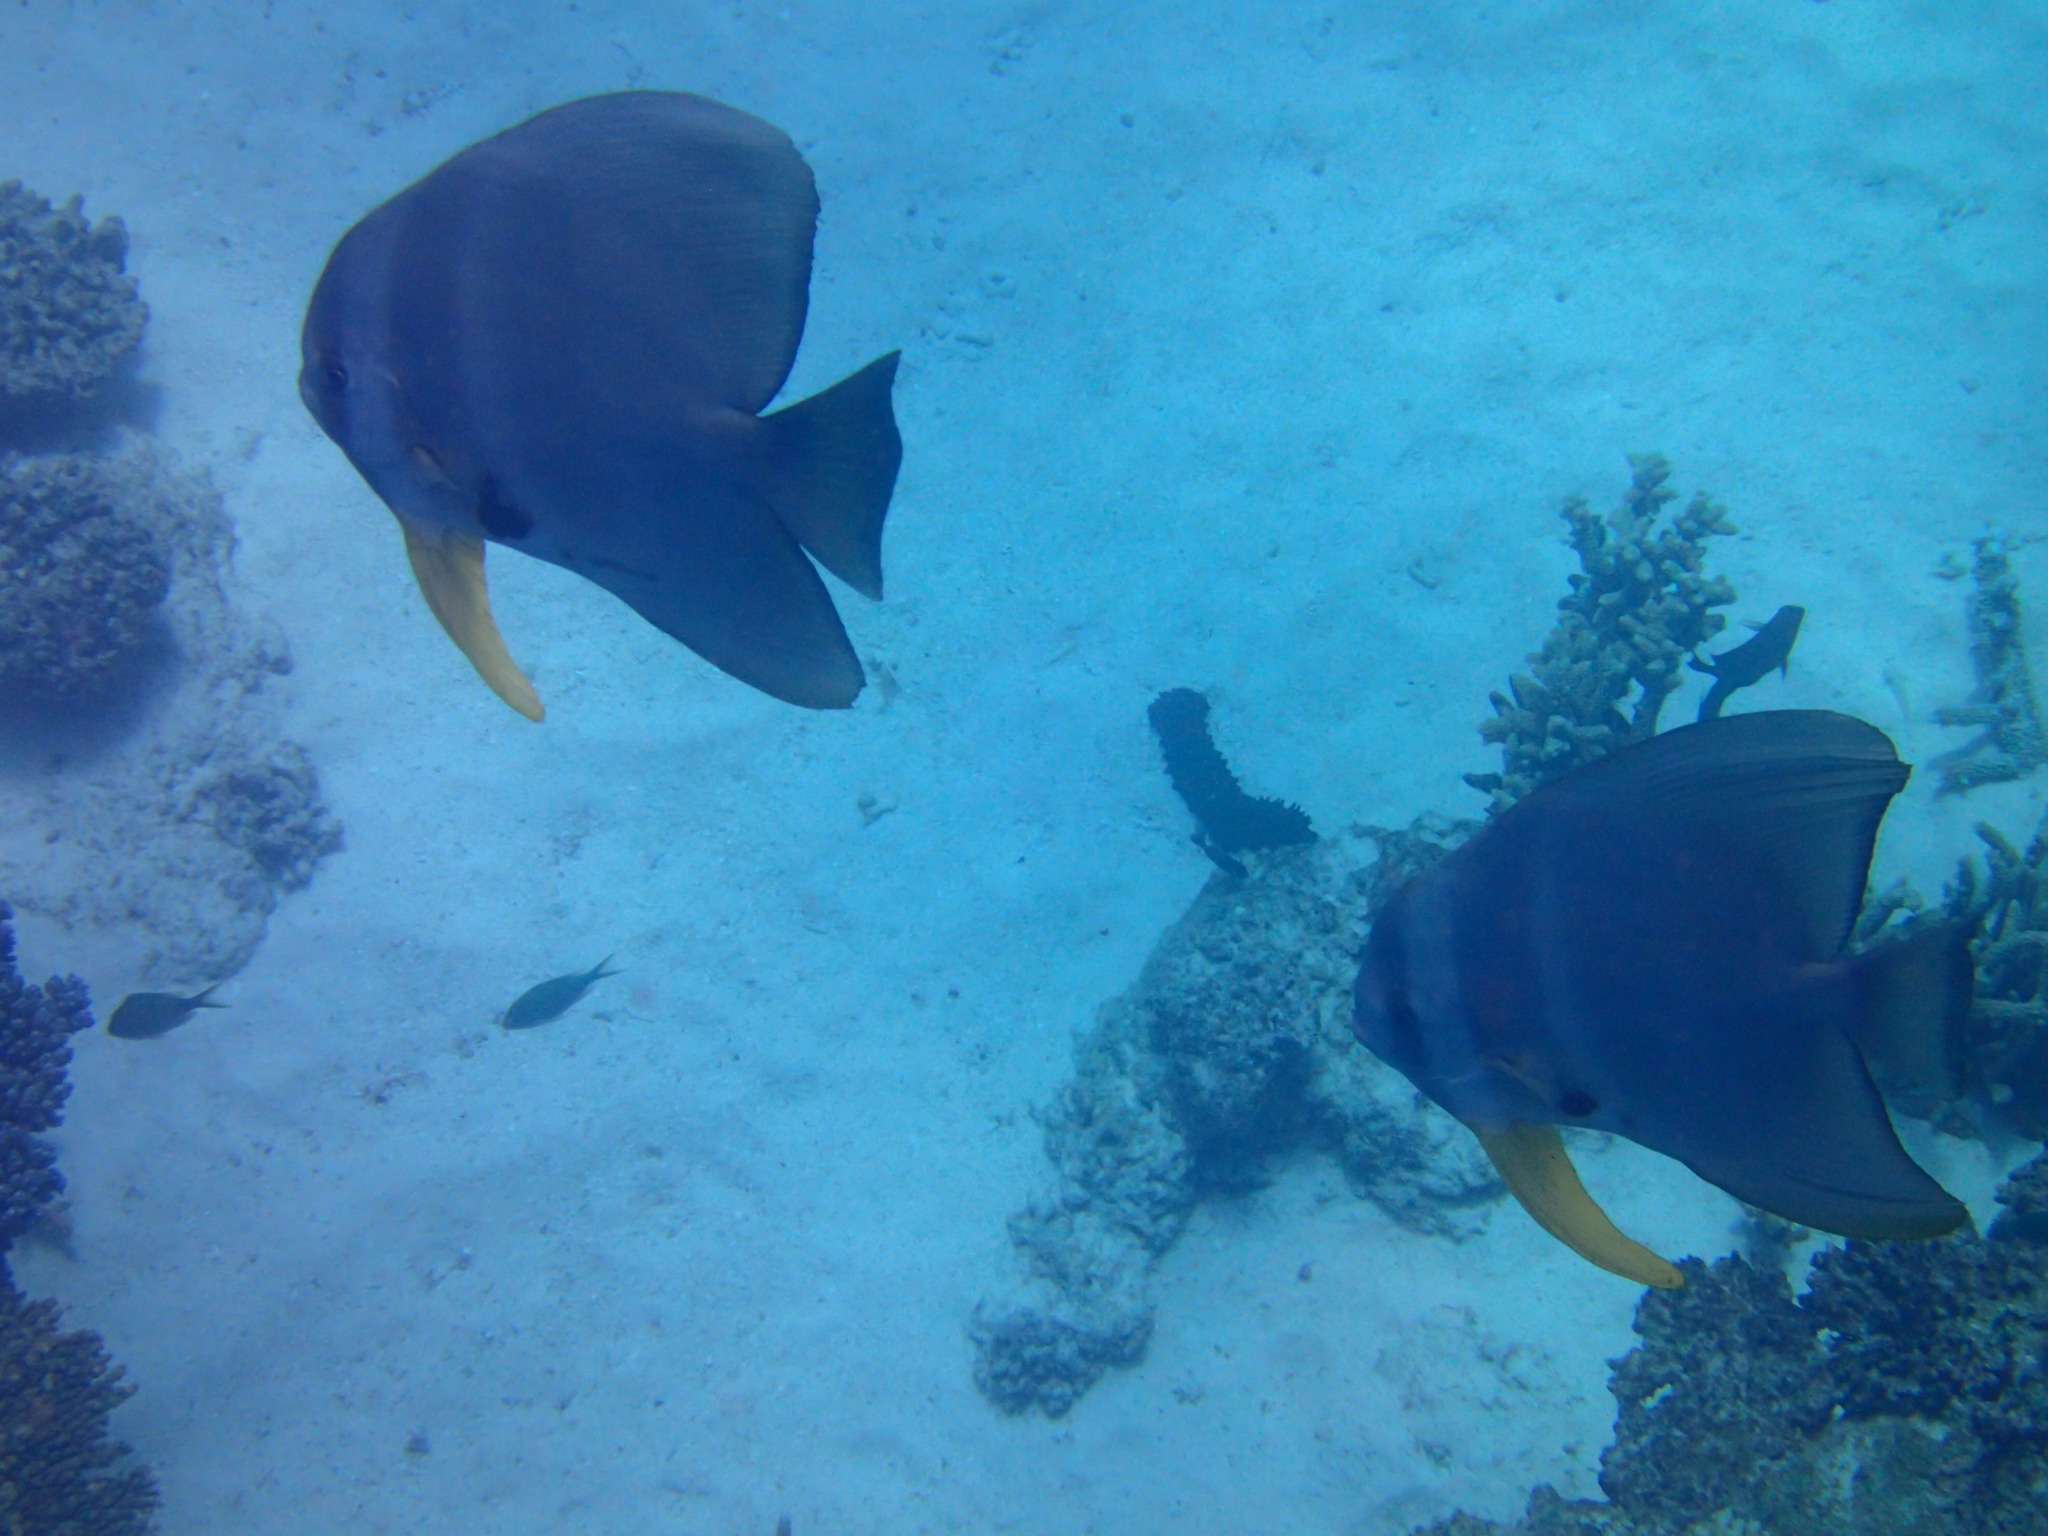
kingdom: Animalia
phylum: Chordata
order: Perciformes
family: Ephippidae
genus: Platax
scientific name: Platax teira
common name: Longfin baitfish
